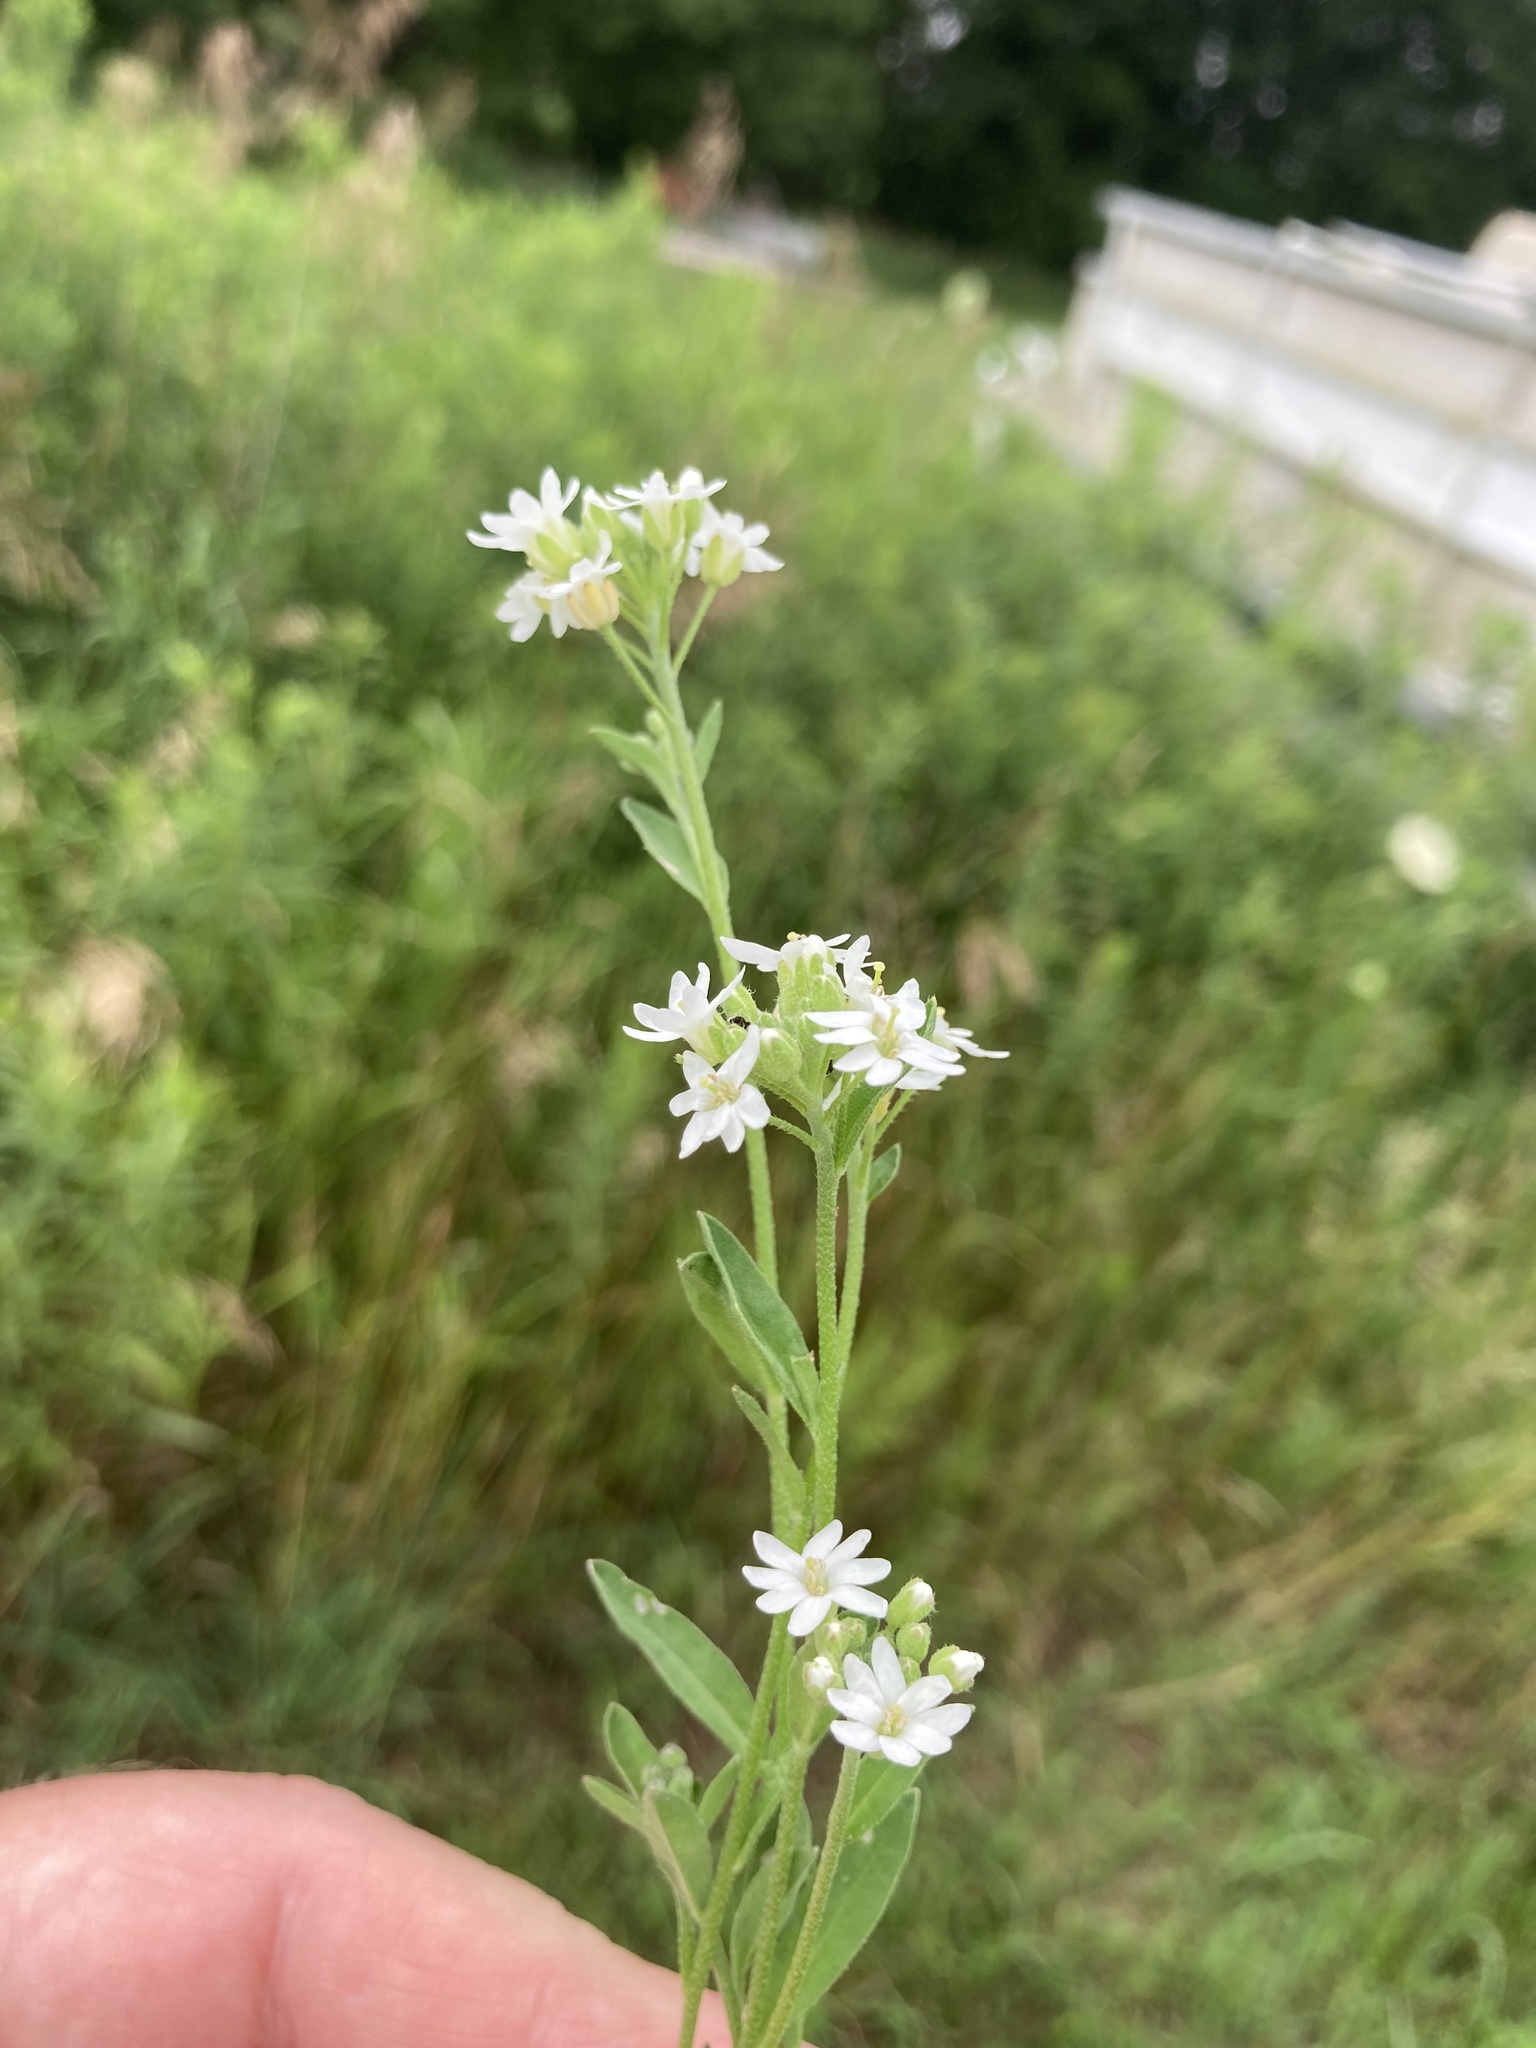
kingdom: Plantae
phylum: Tracheophyta
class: Magnoliopsida
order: Brassicales
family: Brassicaceae
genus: Berteroa
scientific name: Berteroa incana
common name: Hoary alison
